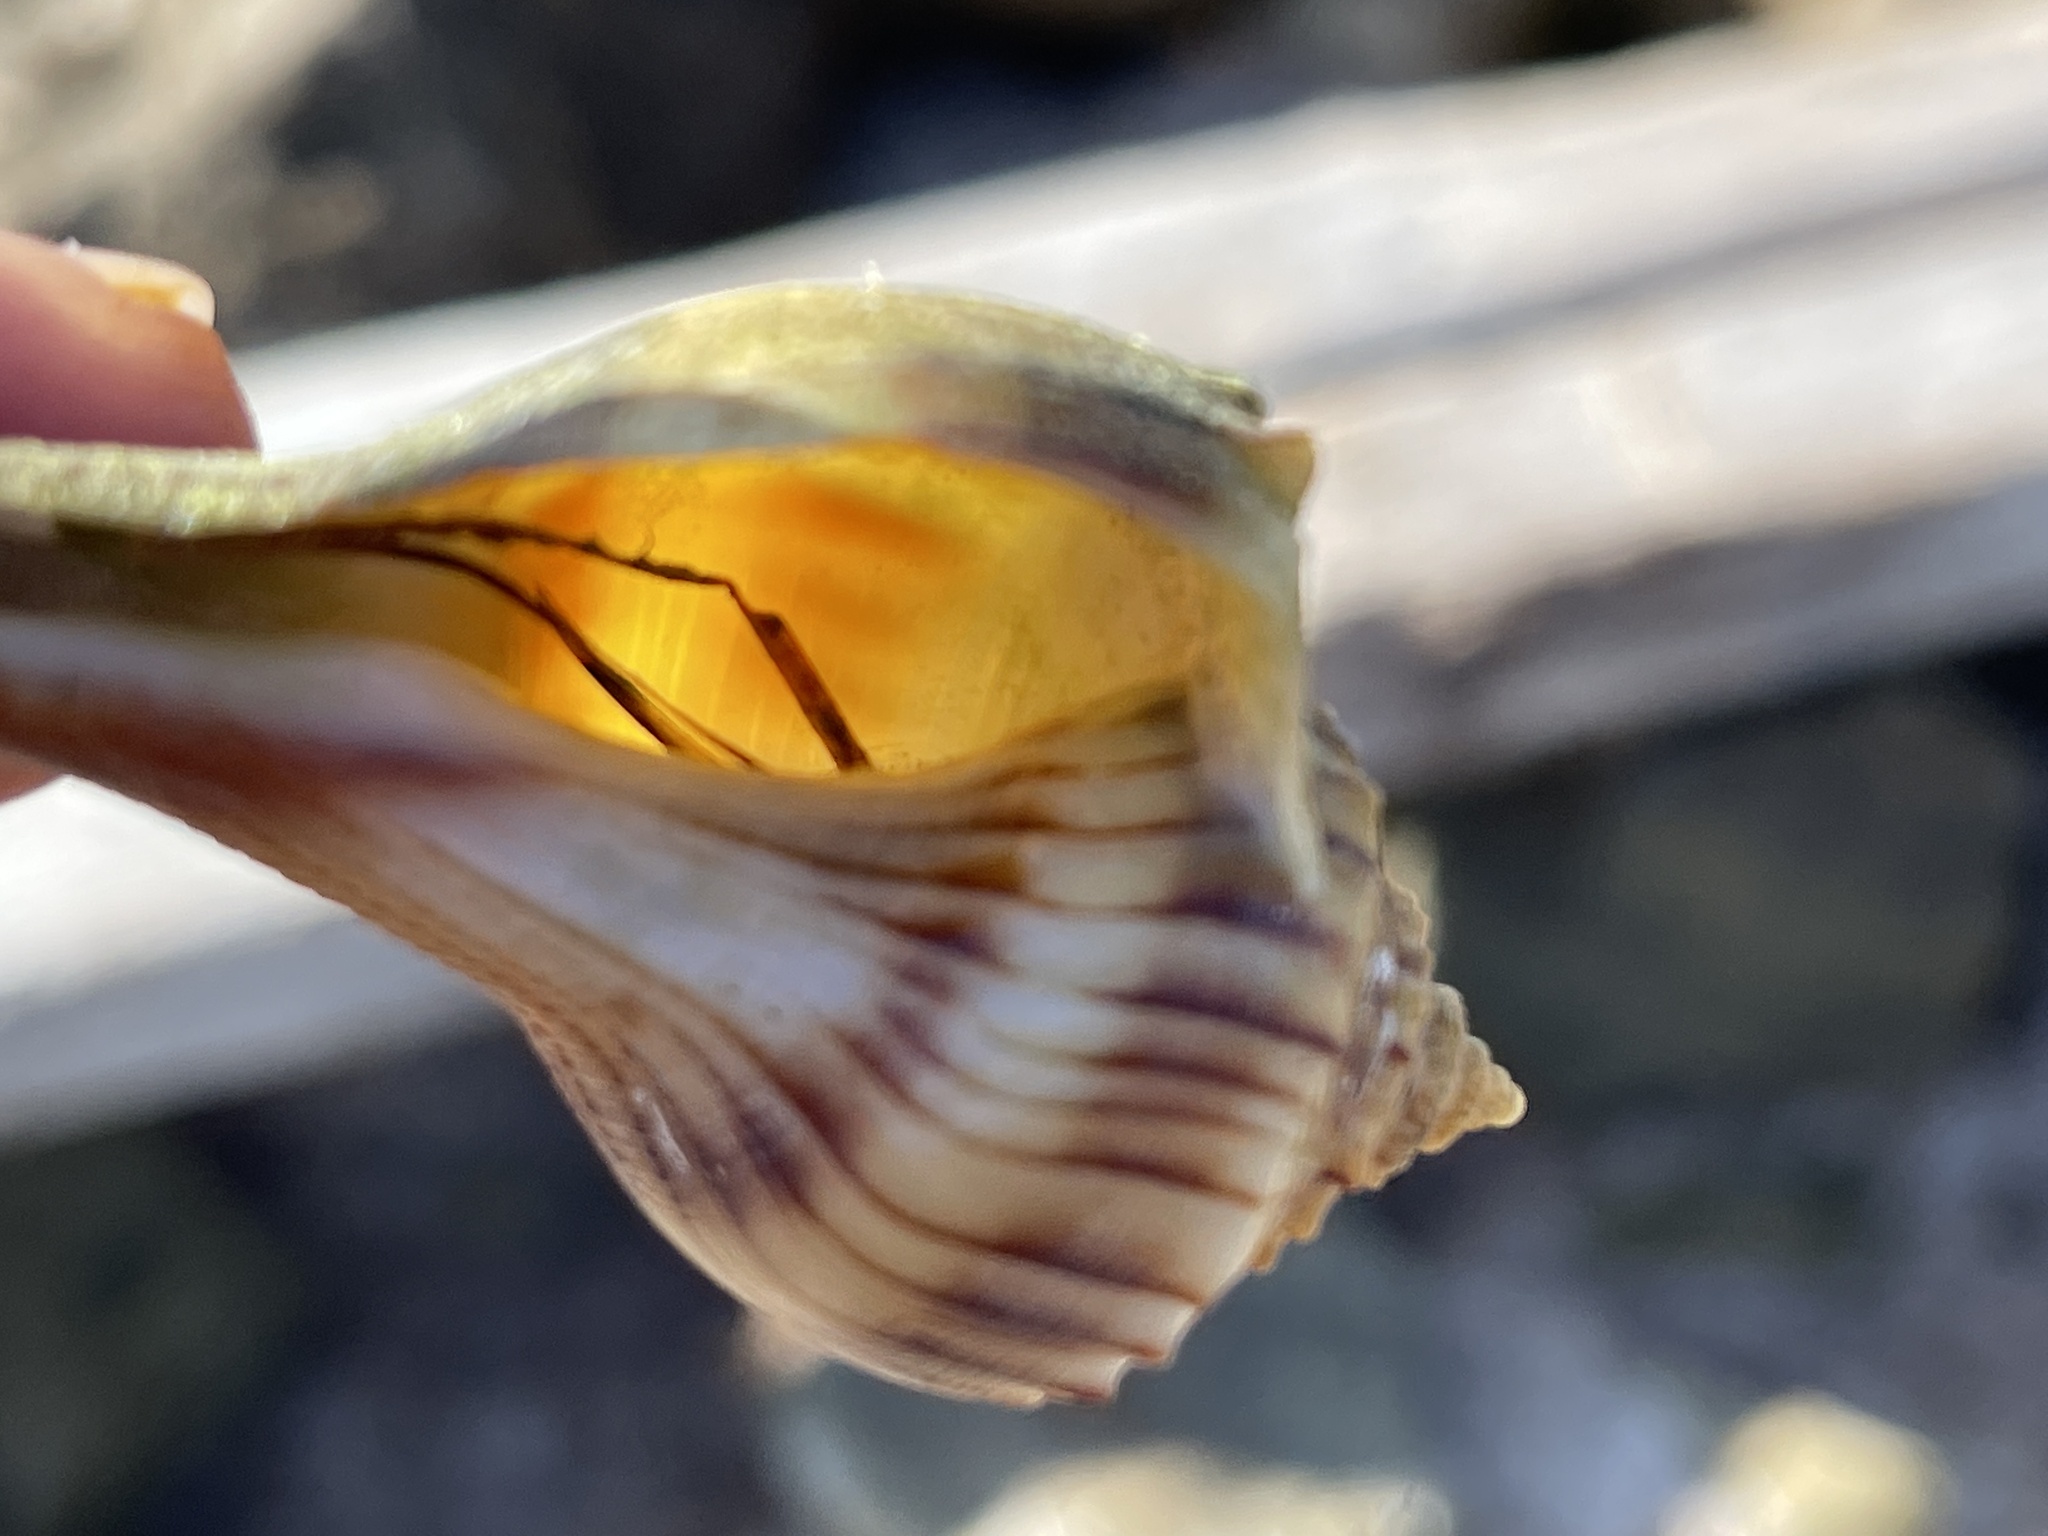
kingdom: Animalia
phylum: Mollusca
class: Gastropoda
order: Neogastropoda
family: Busyconidae
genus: Sinistrofulgur
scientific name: Sinistrofulgur pulleyi
